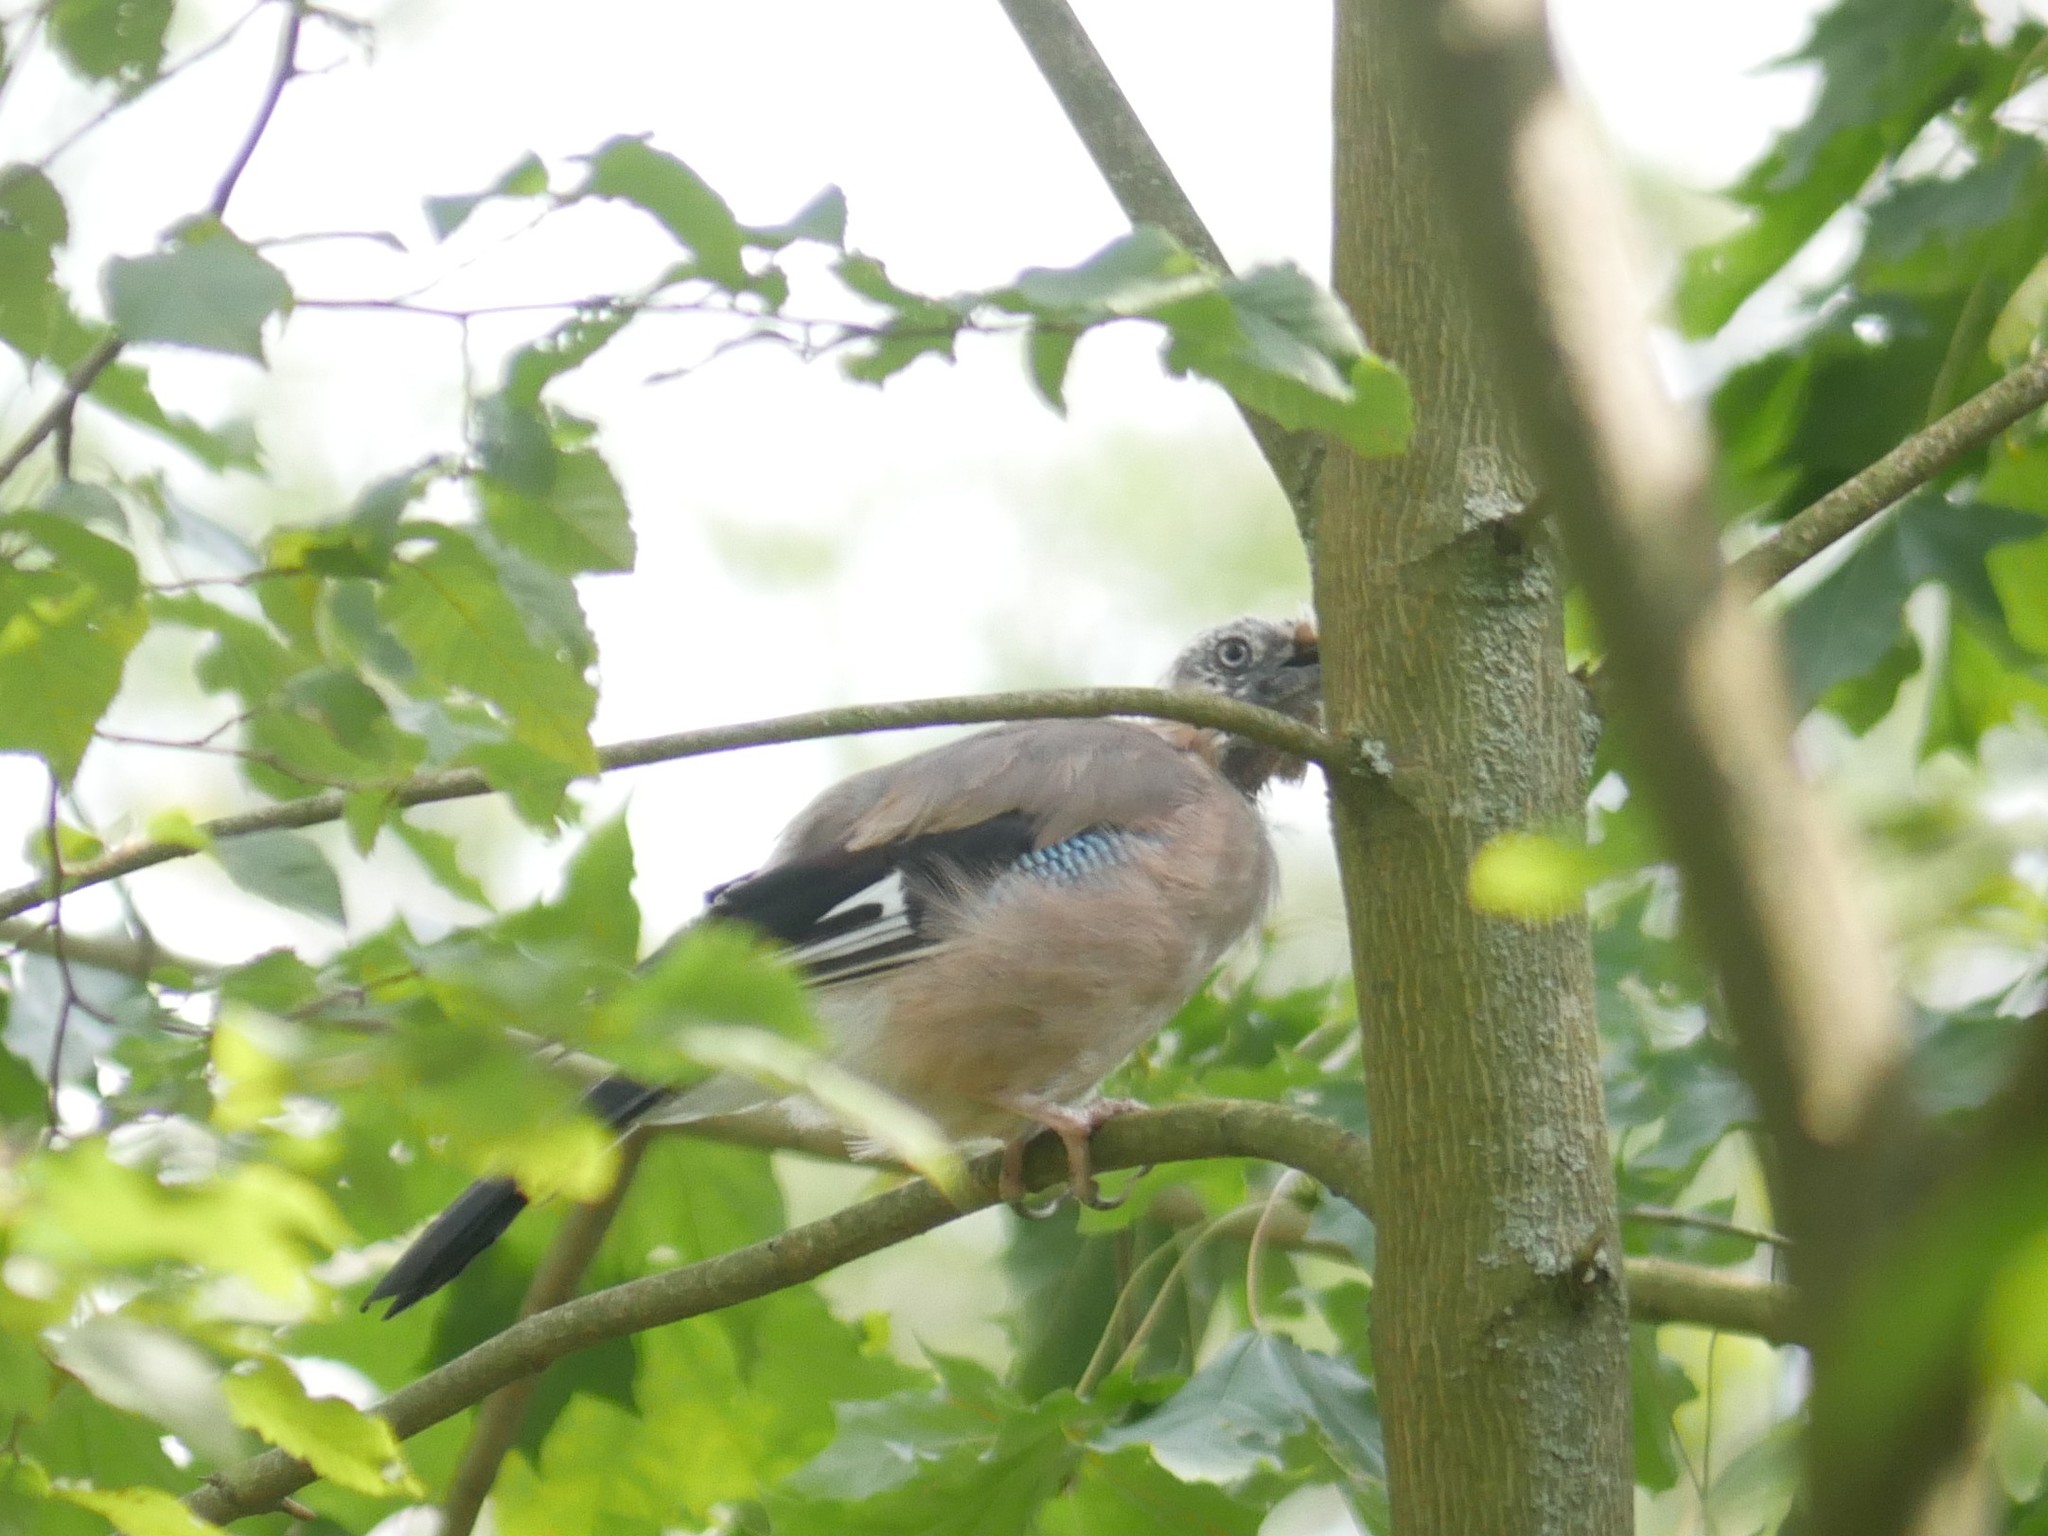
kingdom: Animalia
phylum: Chordata
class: Aves
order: Passeriformes
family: Corvidae
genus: Garrulus
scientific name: Garrulus glandarius
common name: Eurasian jay
